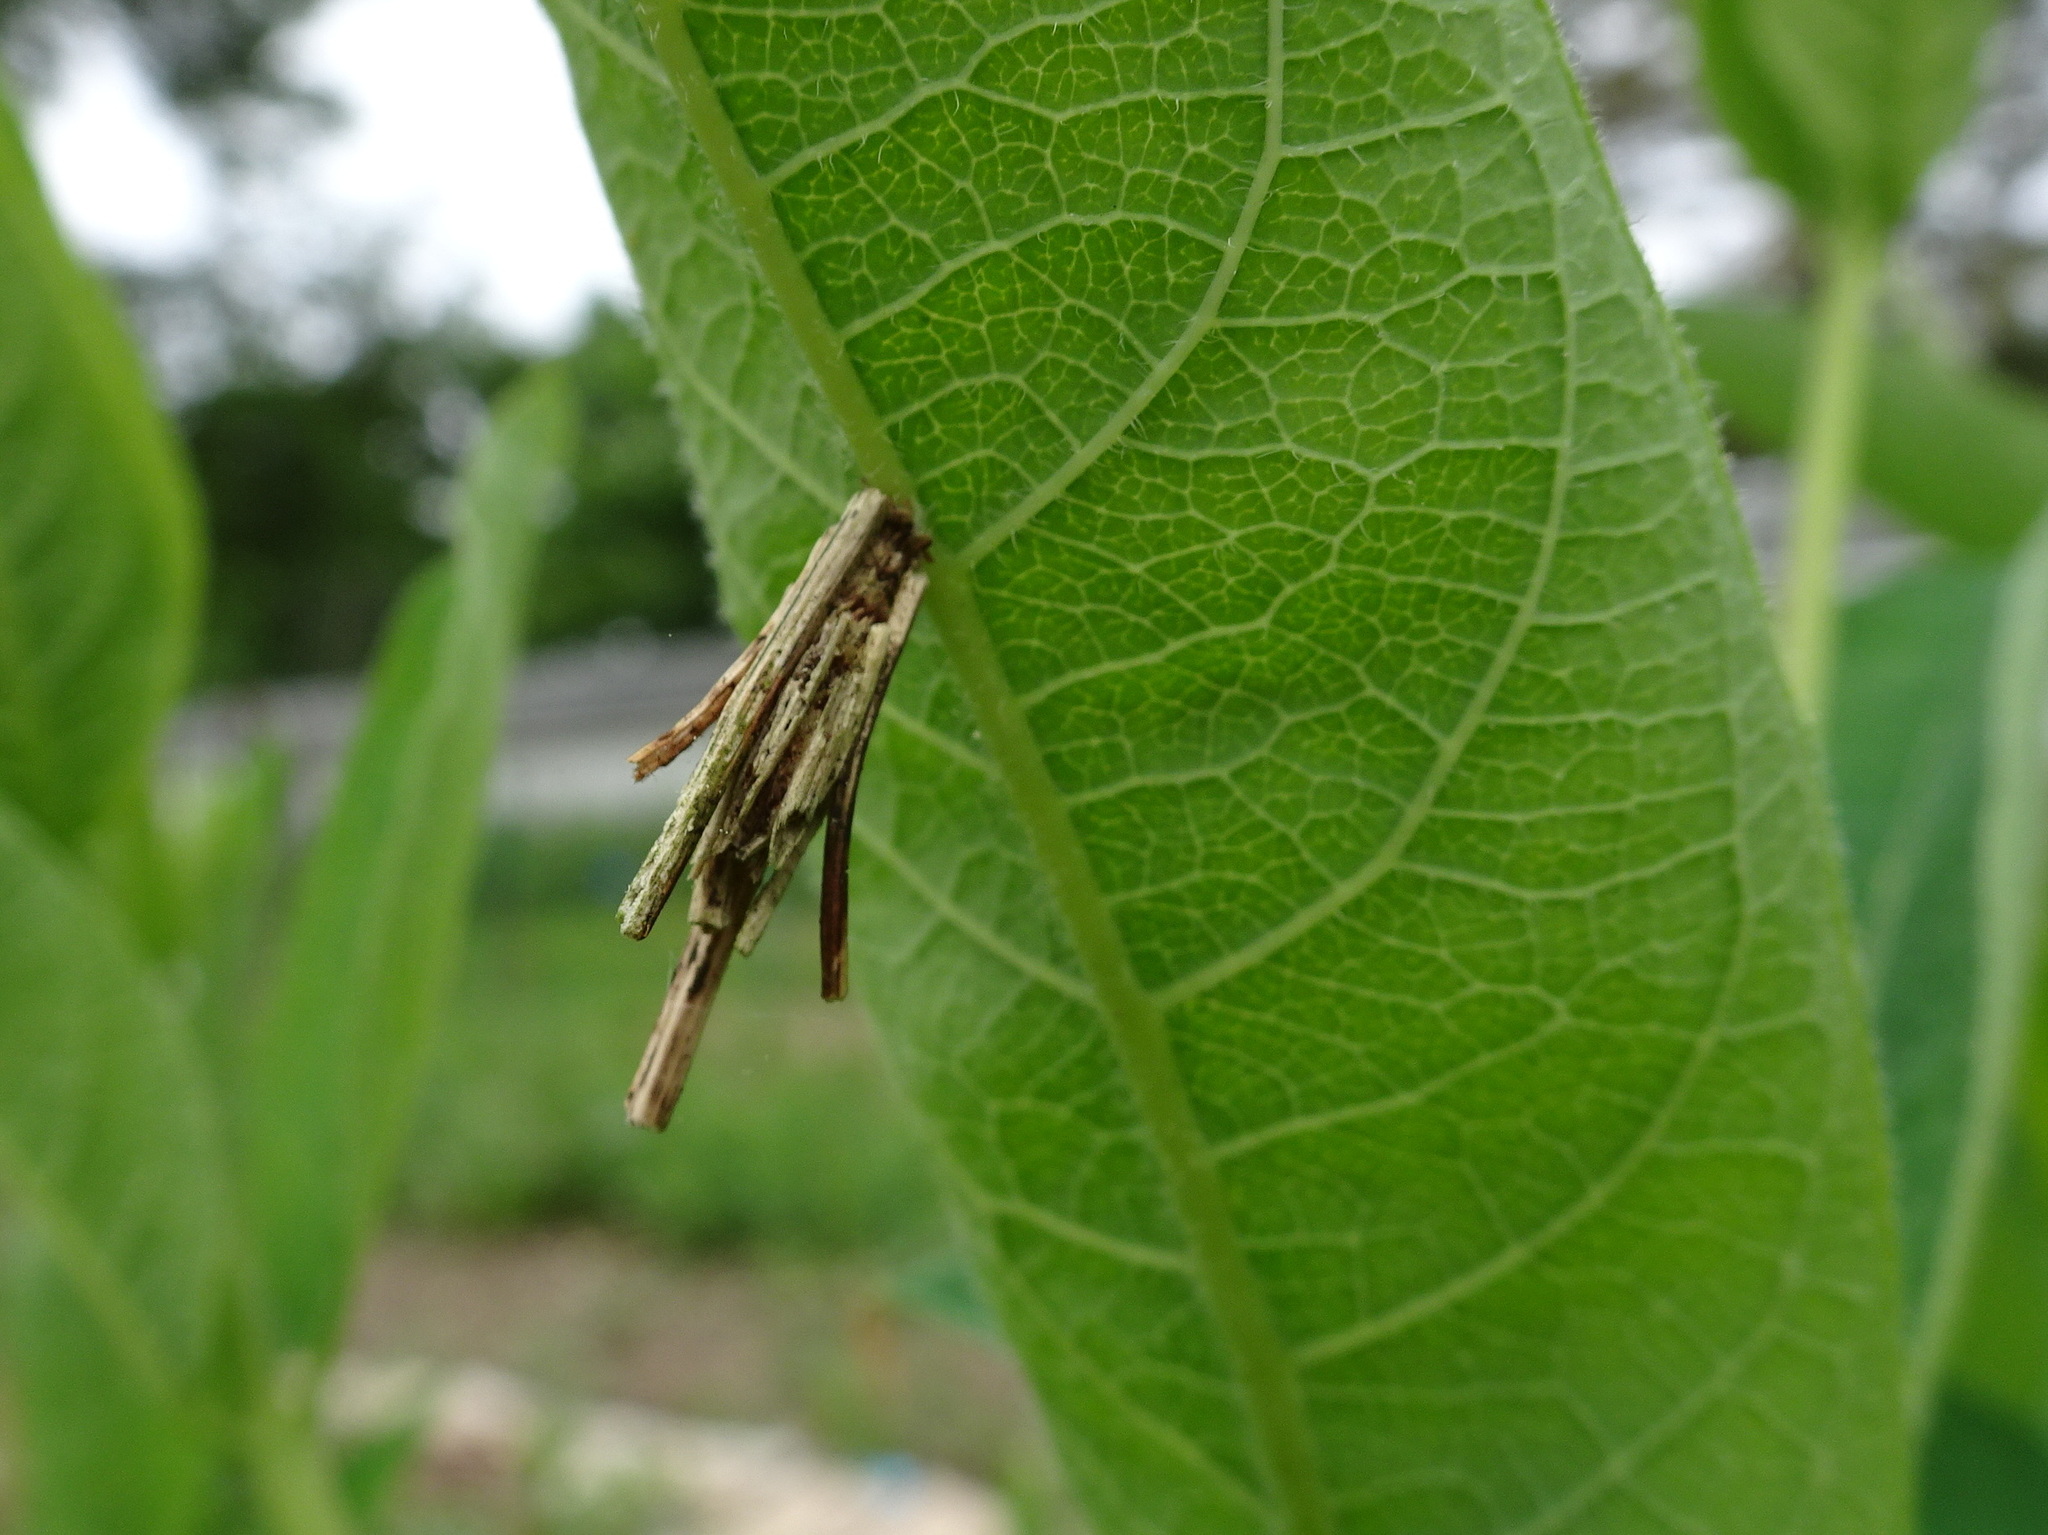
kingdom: Animalia
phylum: Arthropoda
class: Insecta
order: Lepidoptera
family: Psychidae
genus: Psyche
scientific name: Psyche casta
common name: Common sweep
